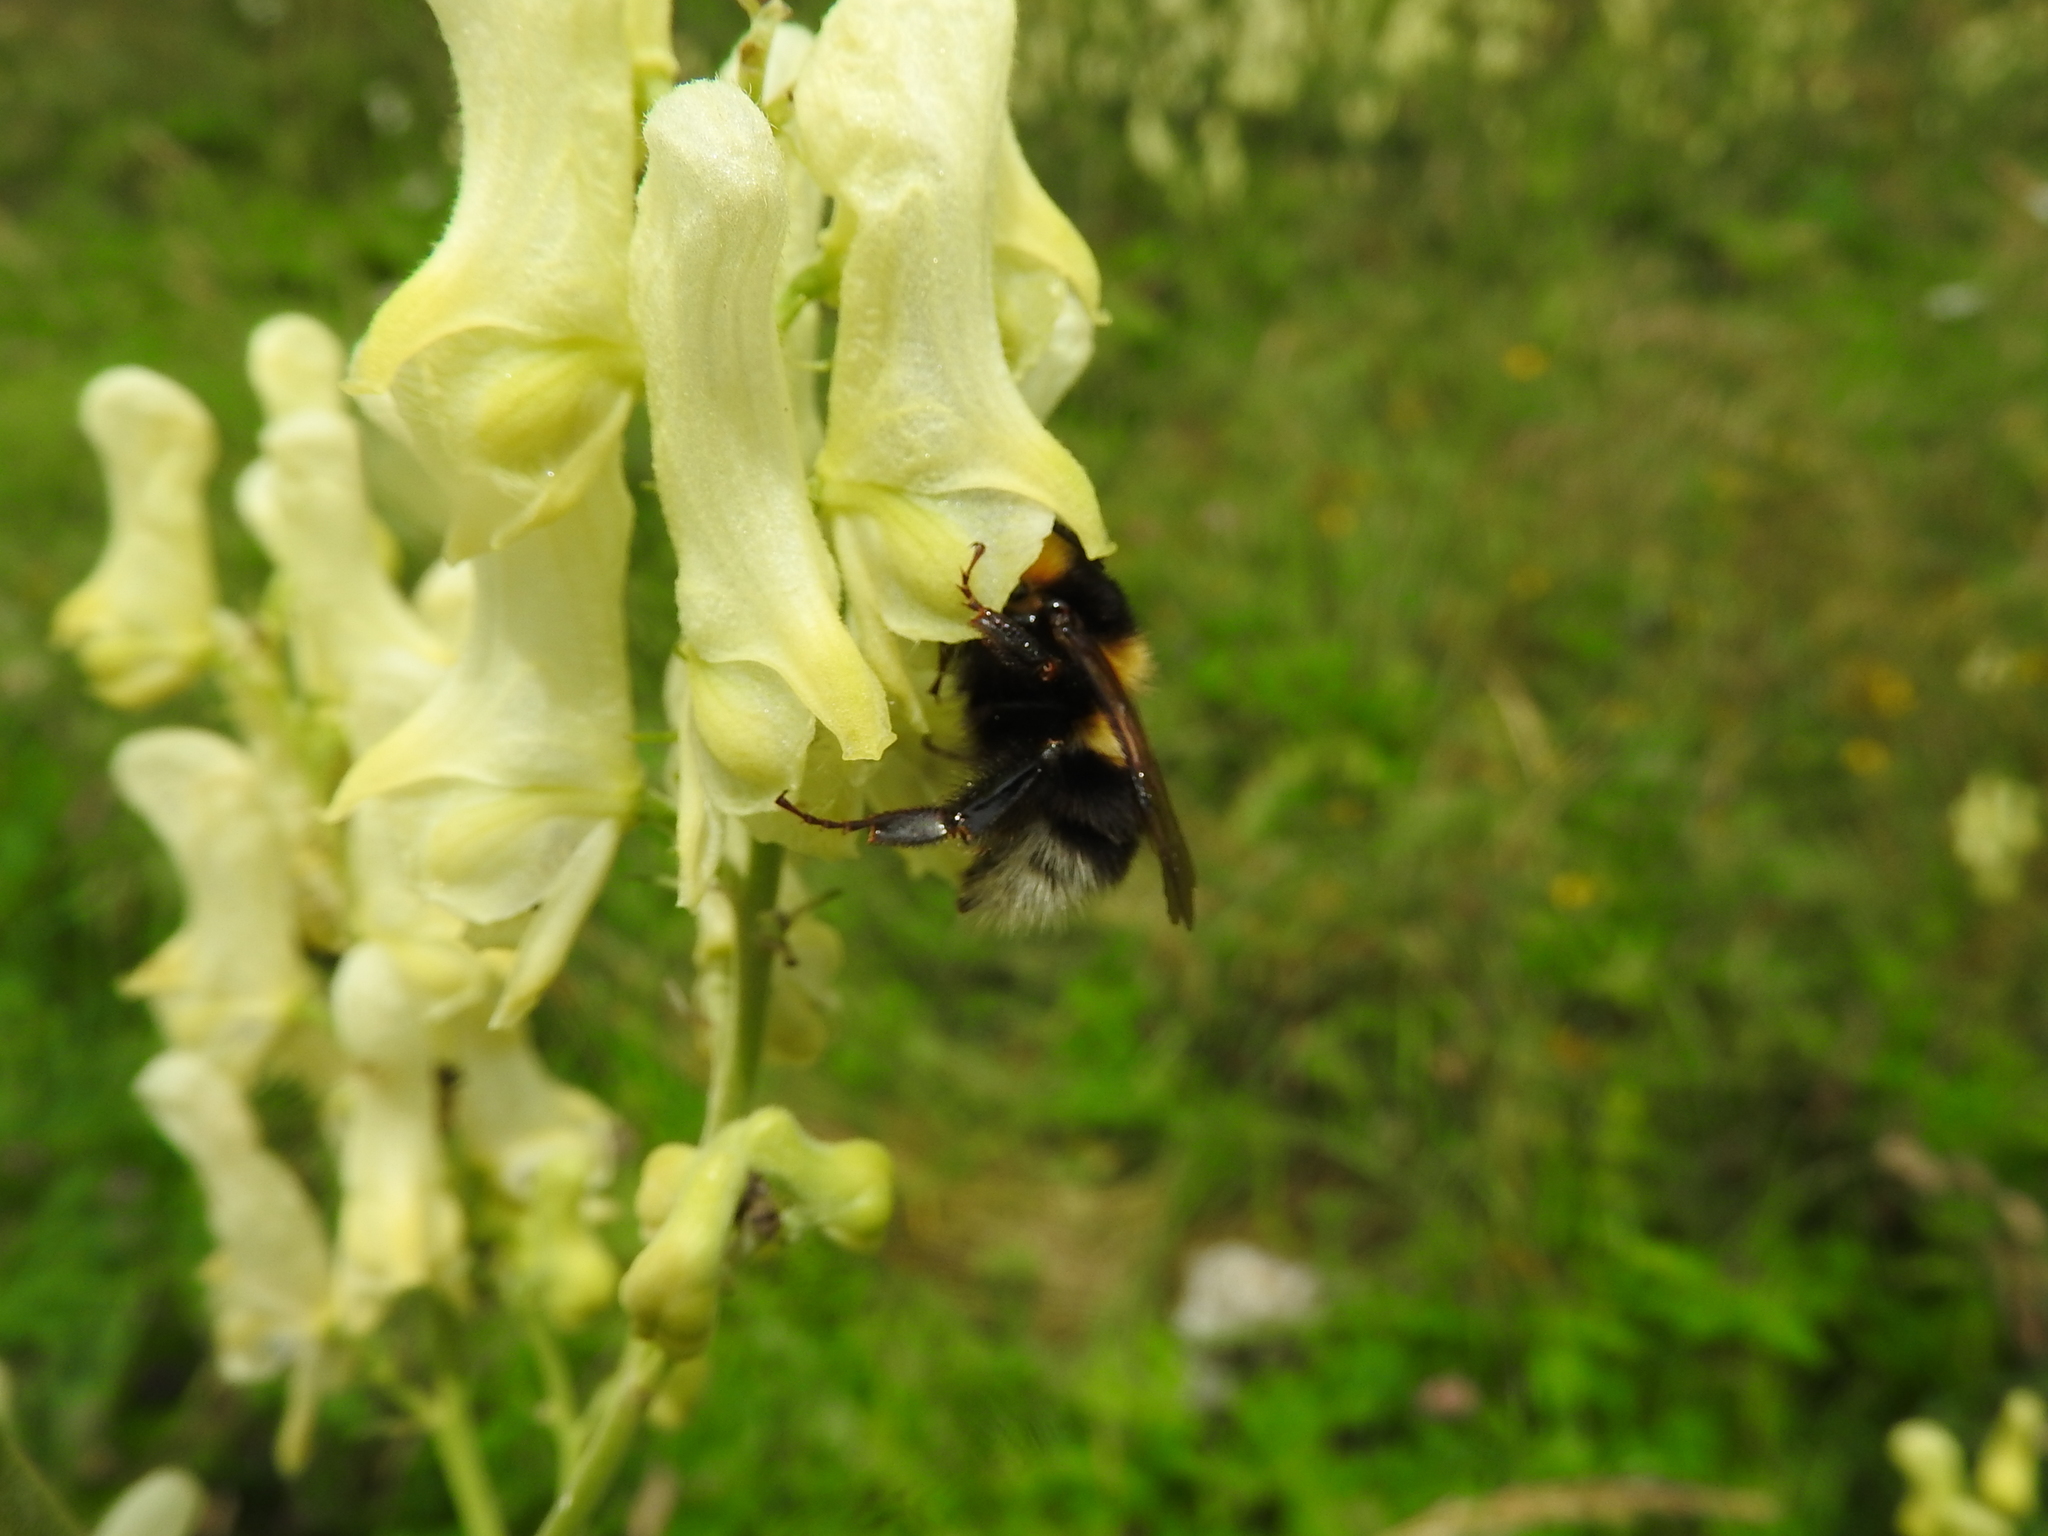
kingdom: Plantae
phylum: Tracheophyta
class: Magnoliopsida
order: Ranunculales
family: Ranunculaceae
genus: Aconitum
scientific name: Aconitum lycoctonum
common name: Wolf's-bane
